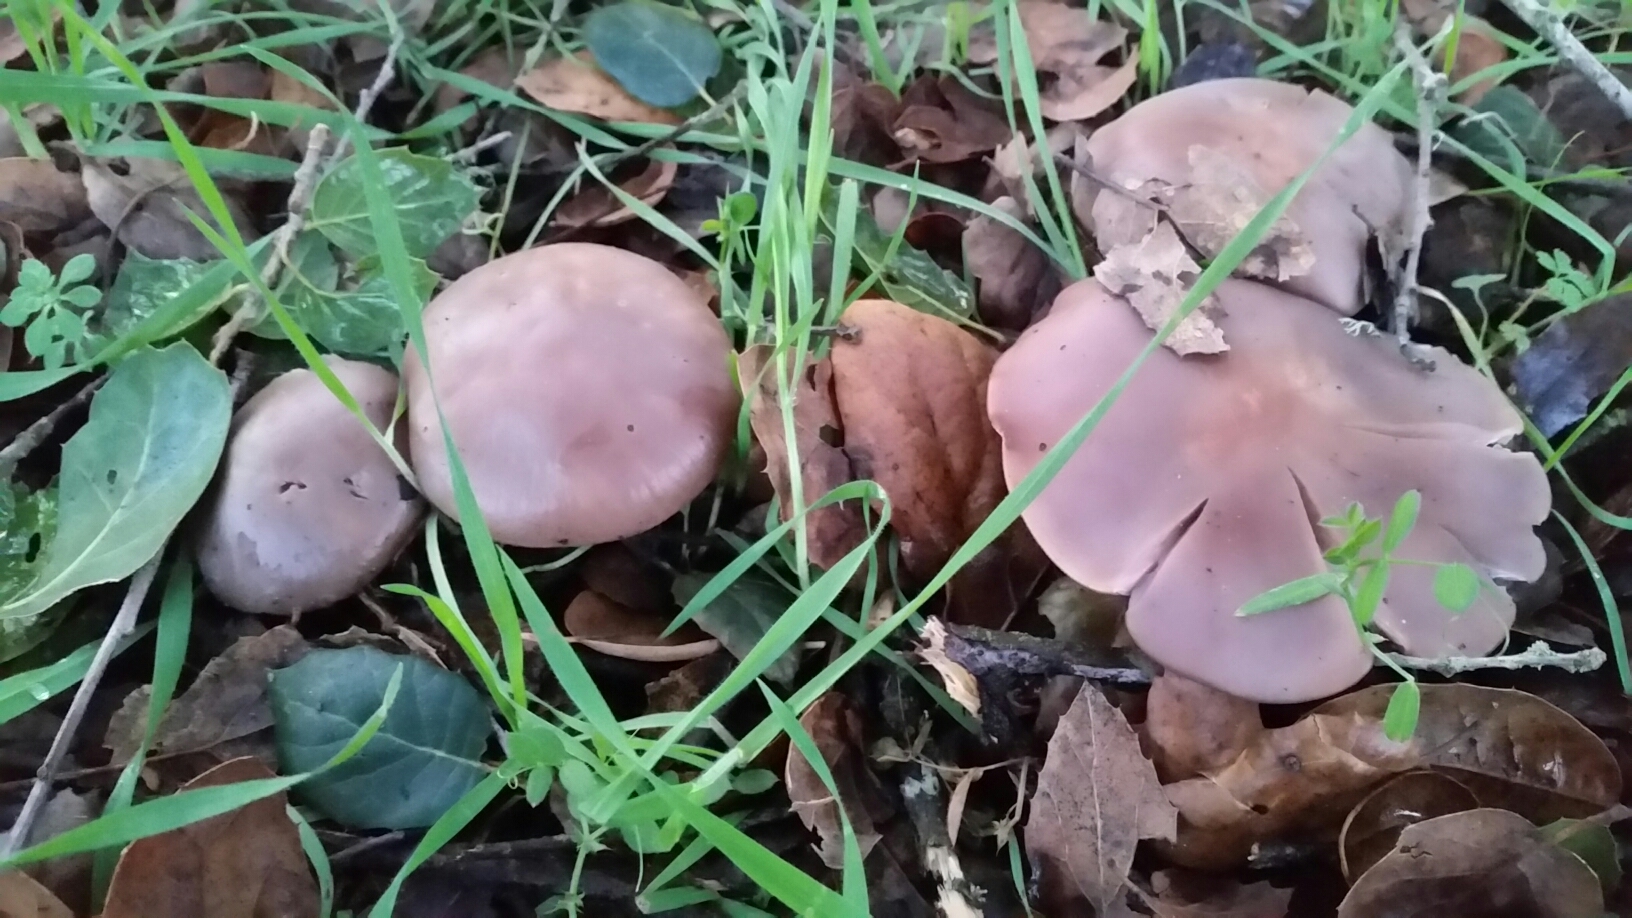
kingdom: Fungi
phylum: Basidiomycota
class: Agaricomycetes
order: Agaricales
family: Tricholomataceae
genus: Collybia
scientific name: Collybia
